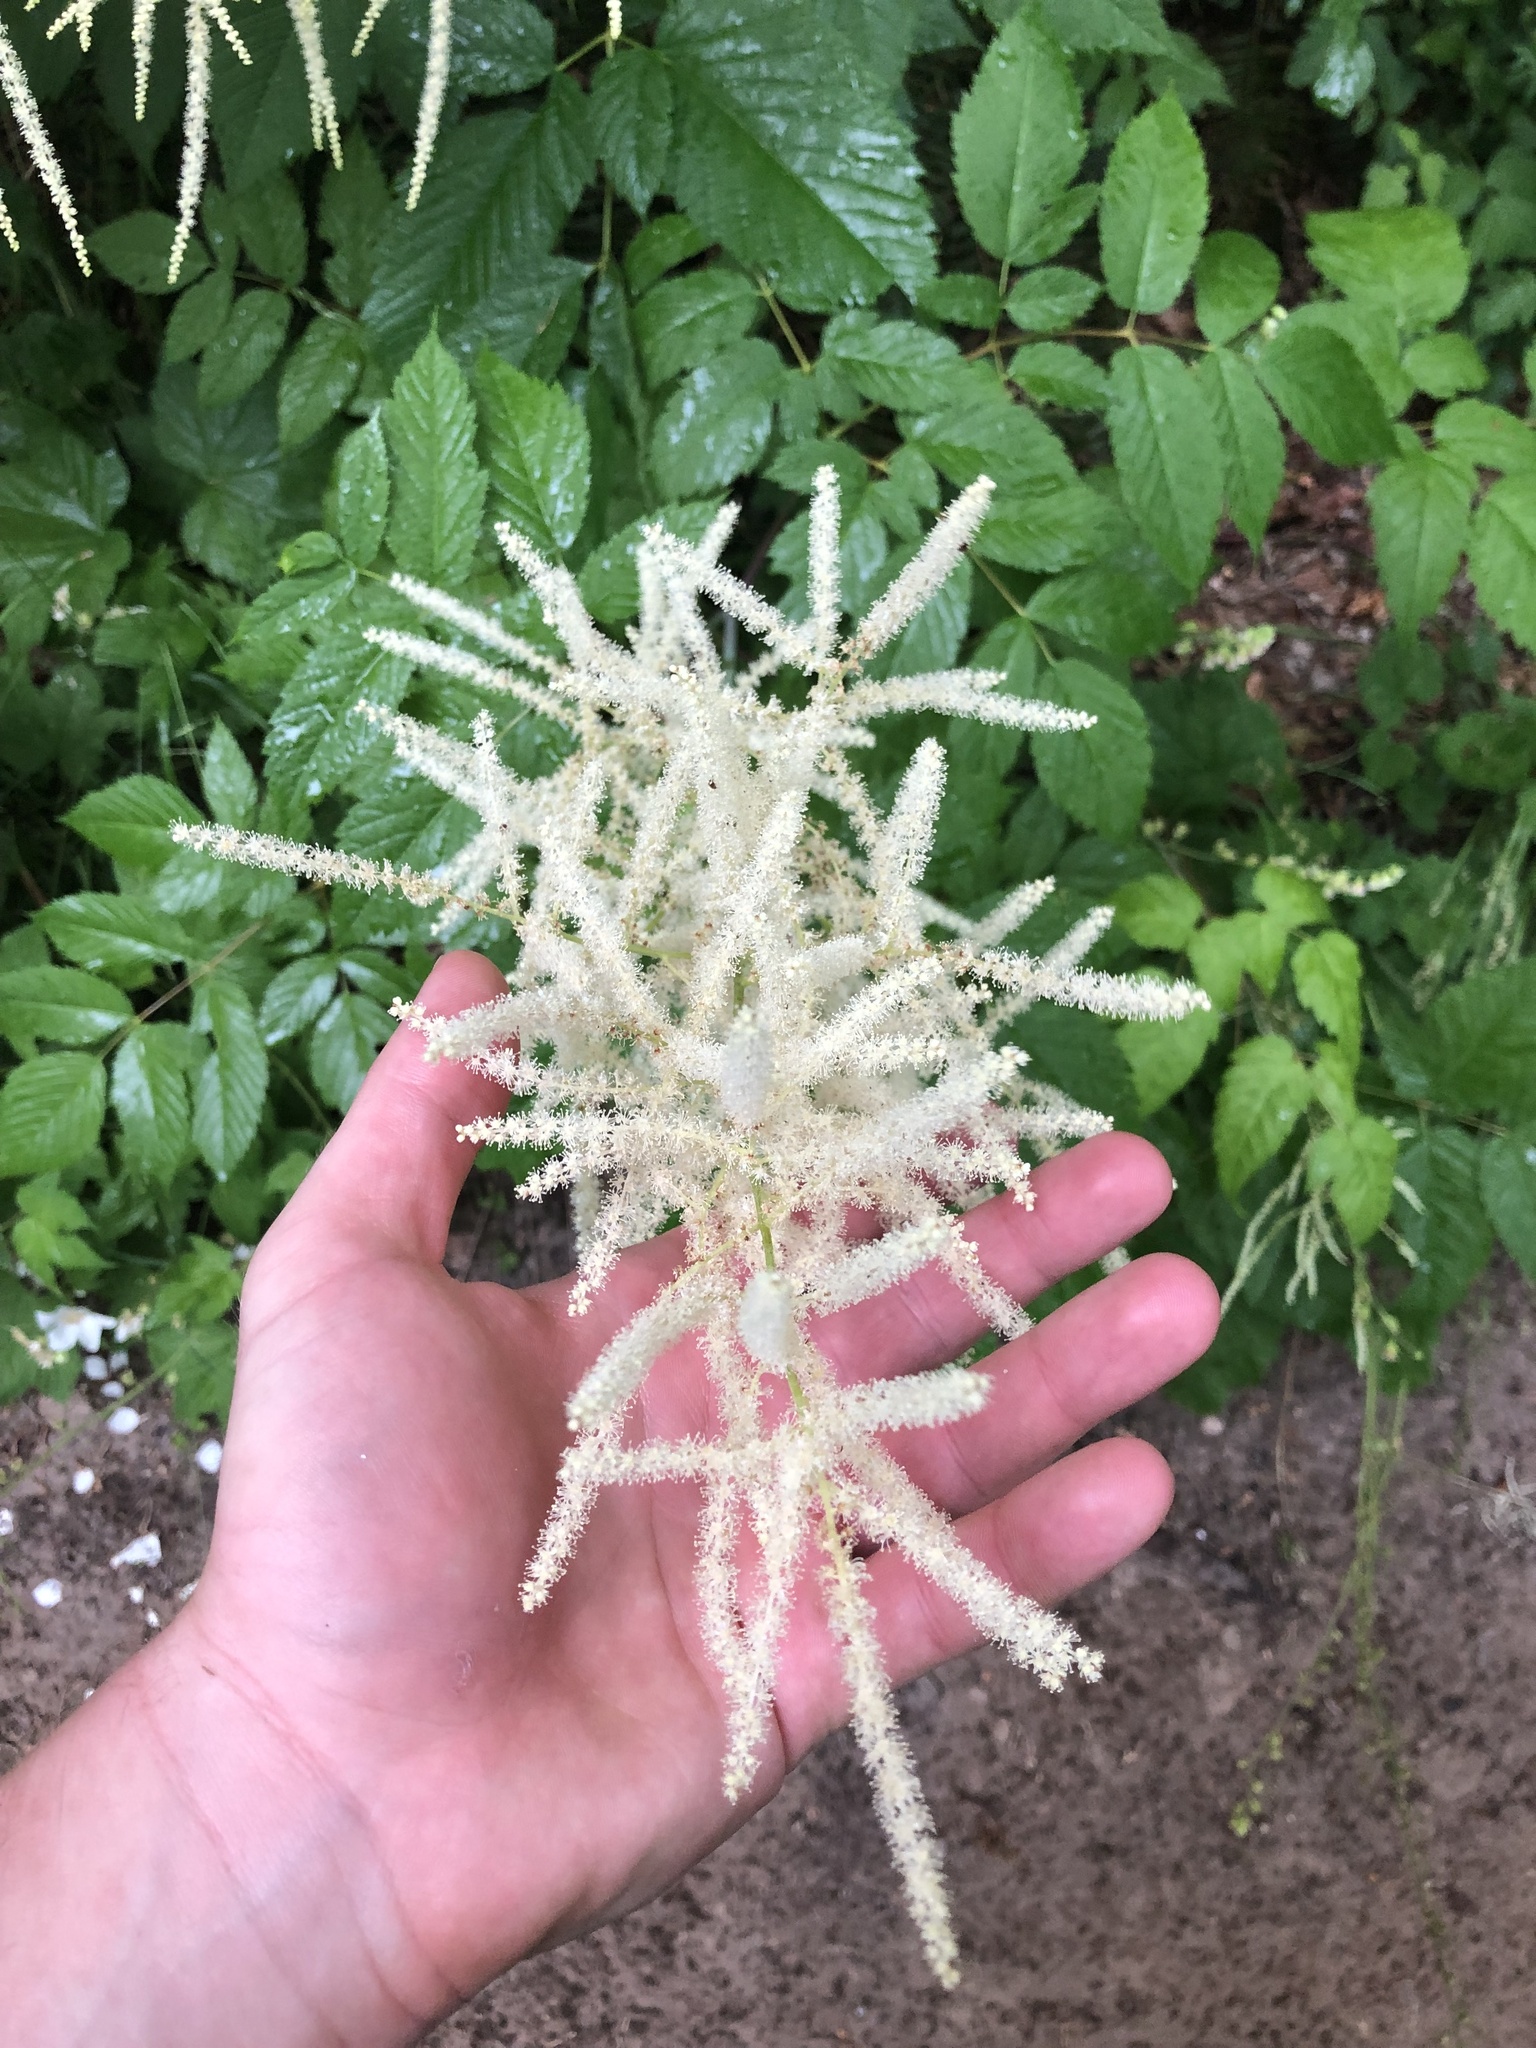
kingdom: Plantae
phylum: Tracheophyta
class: Magnoliopsida
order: Rosales
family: Rosaceae
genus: Aruncus
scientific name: Aruncus dioicus
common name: Buck's-beard
